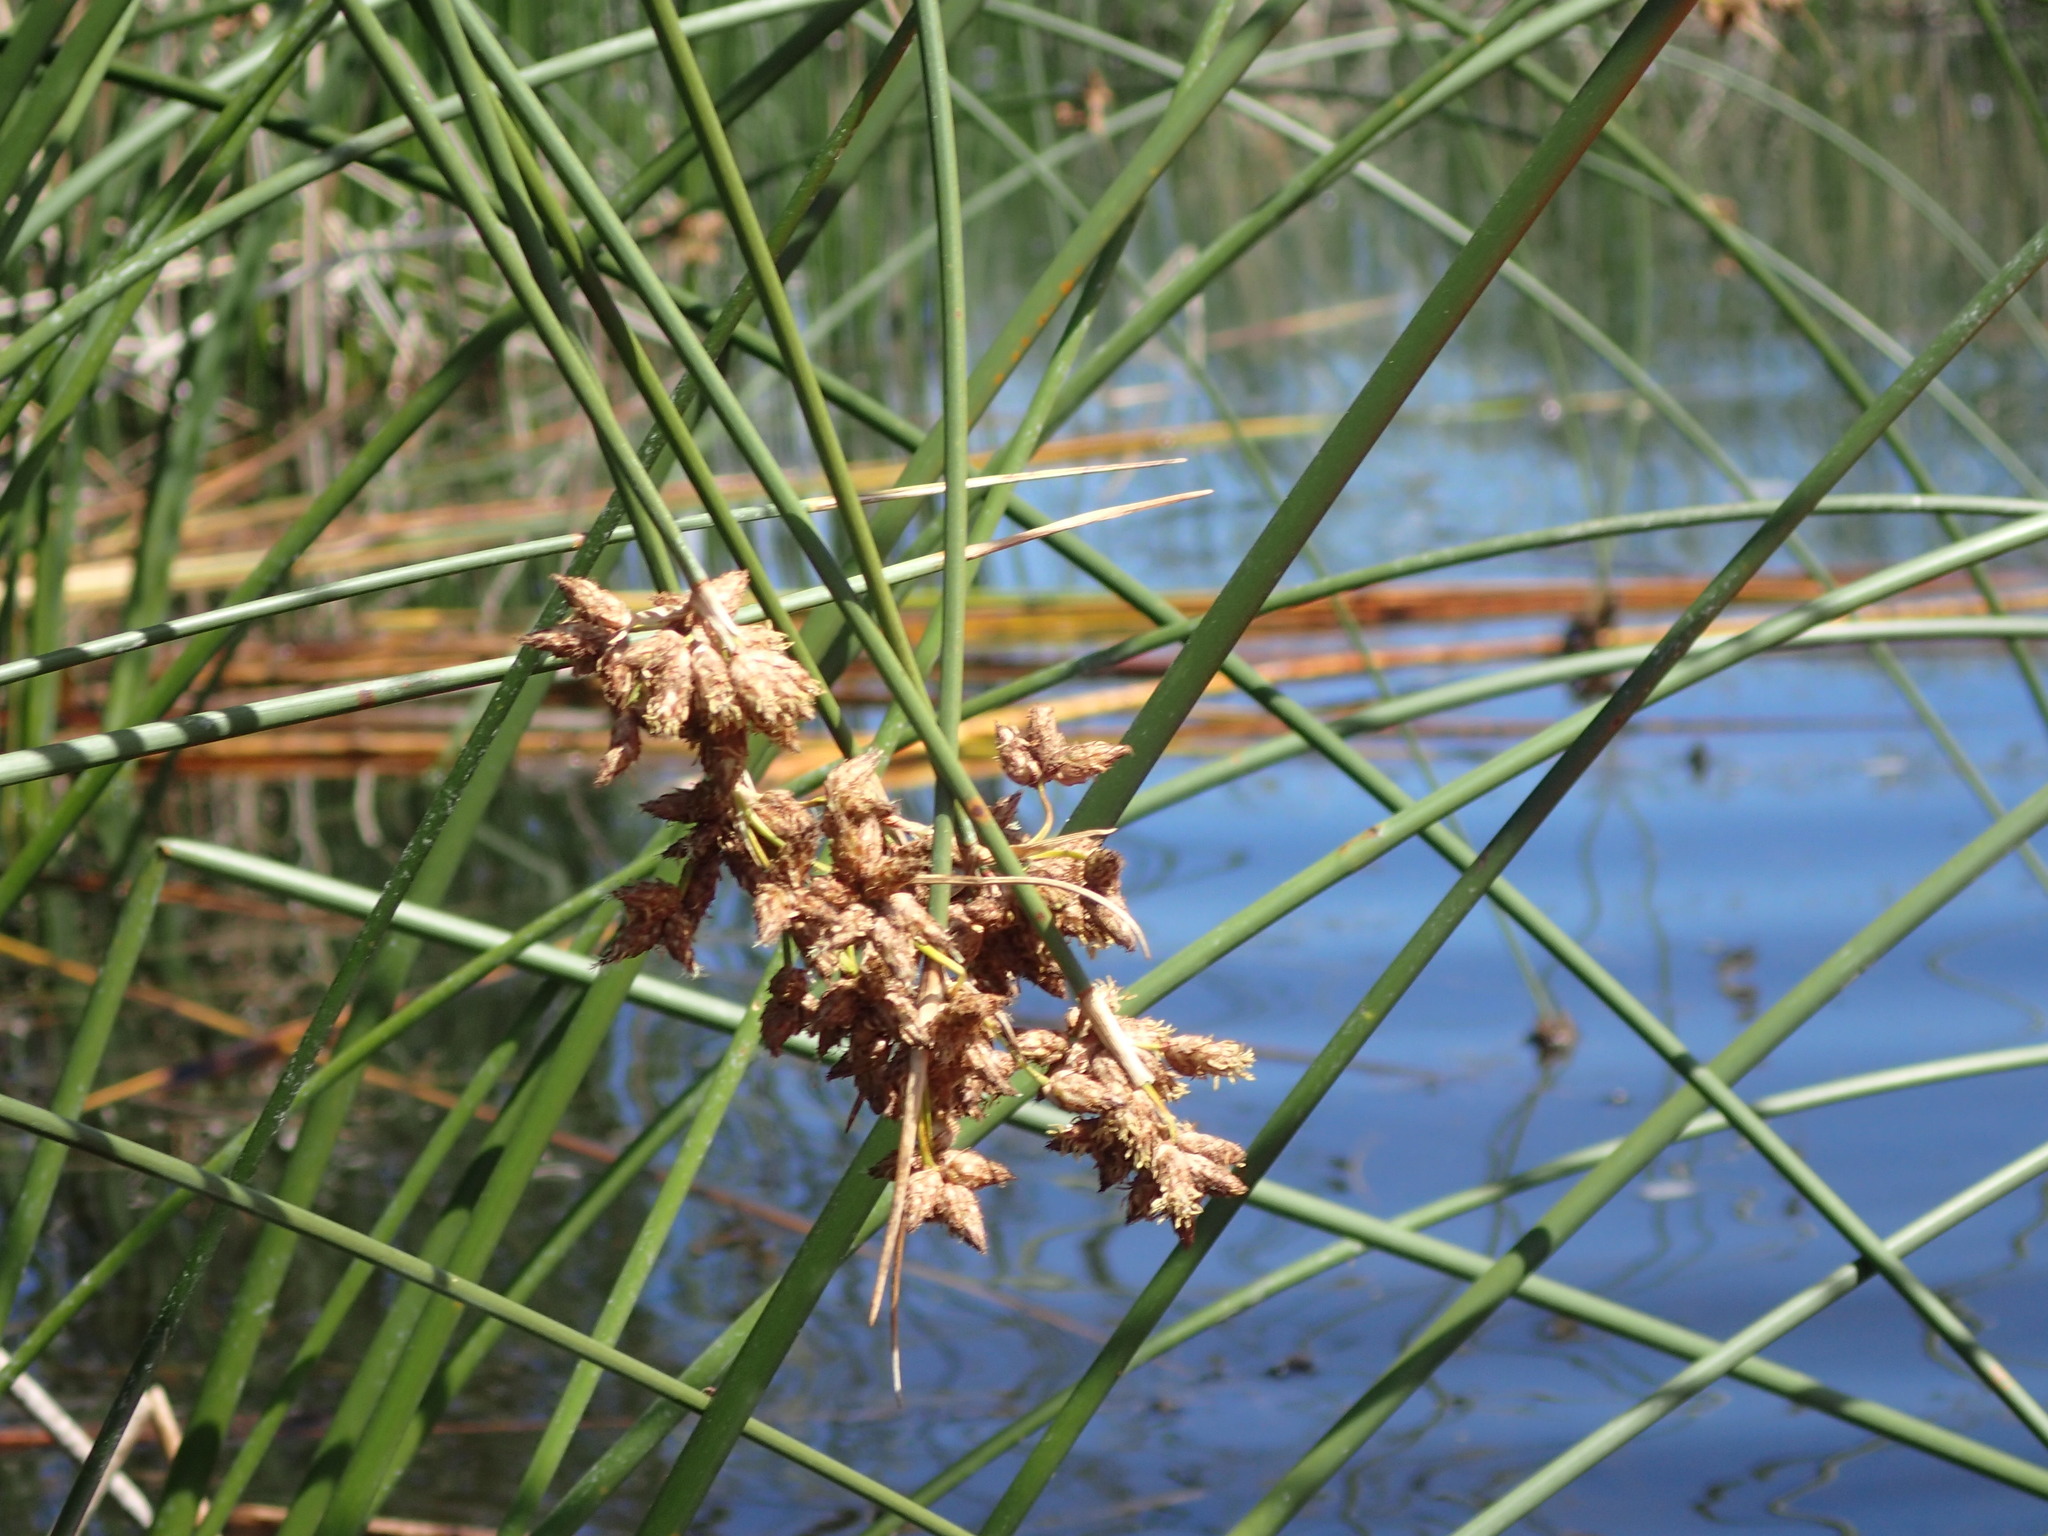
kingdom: Plantae
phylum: Tracheophyta
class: Liliopsida
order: Poales
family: Cyperaceae
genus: Schoenoplectus
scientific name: Schoenoplectus acutus
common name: Hardstem bulrush
